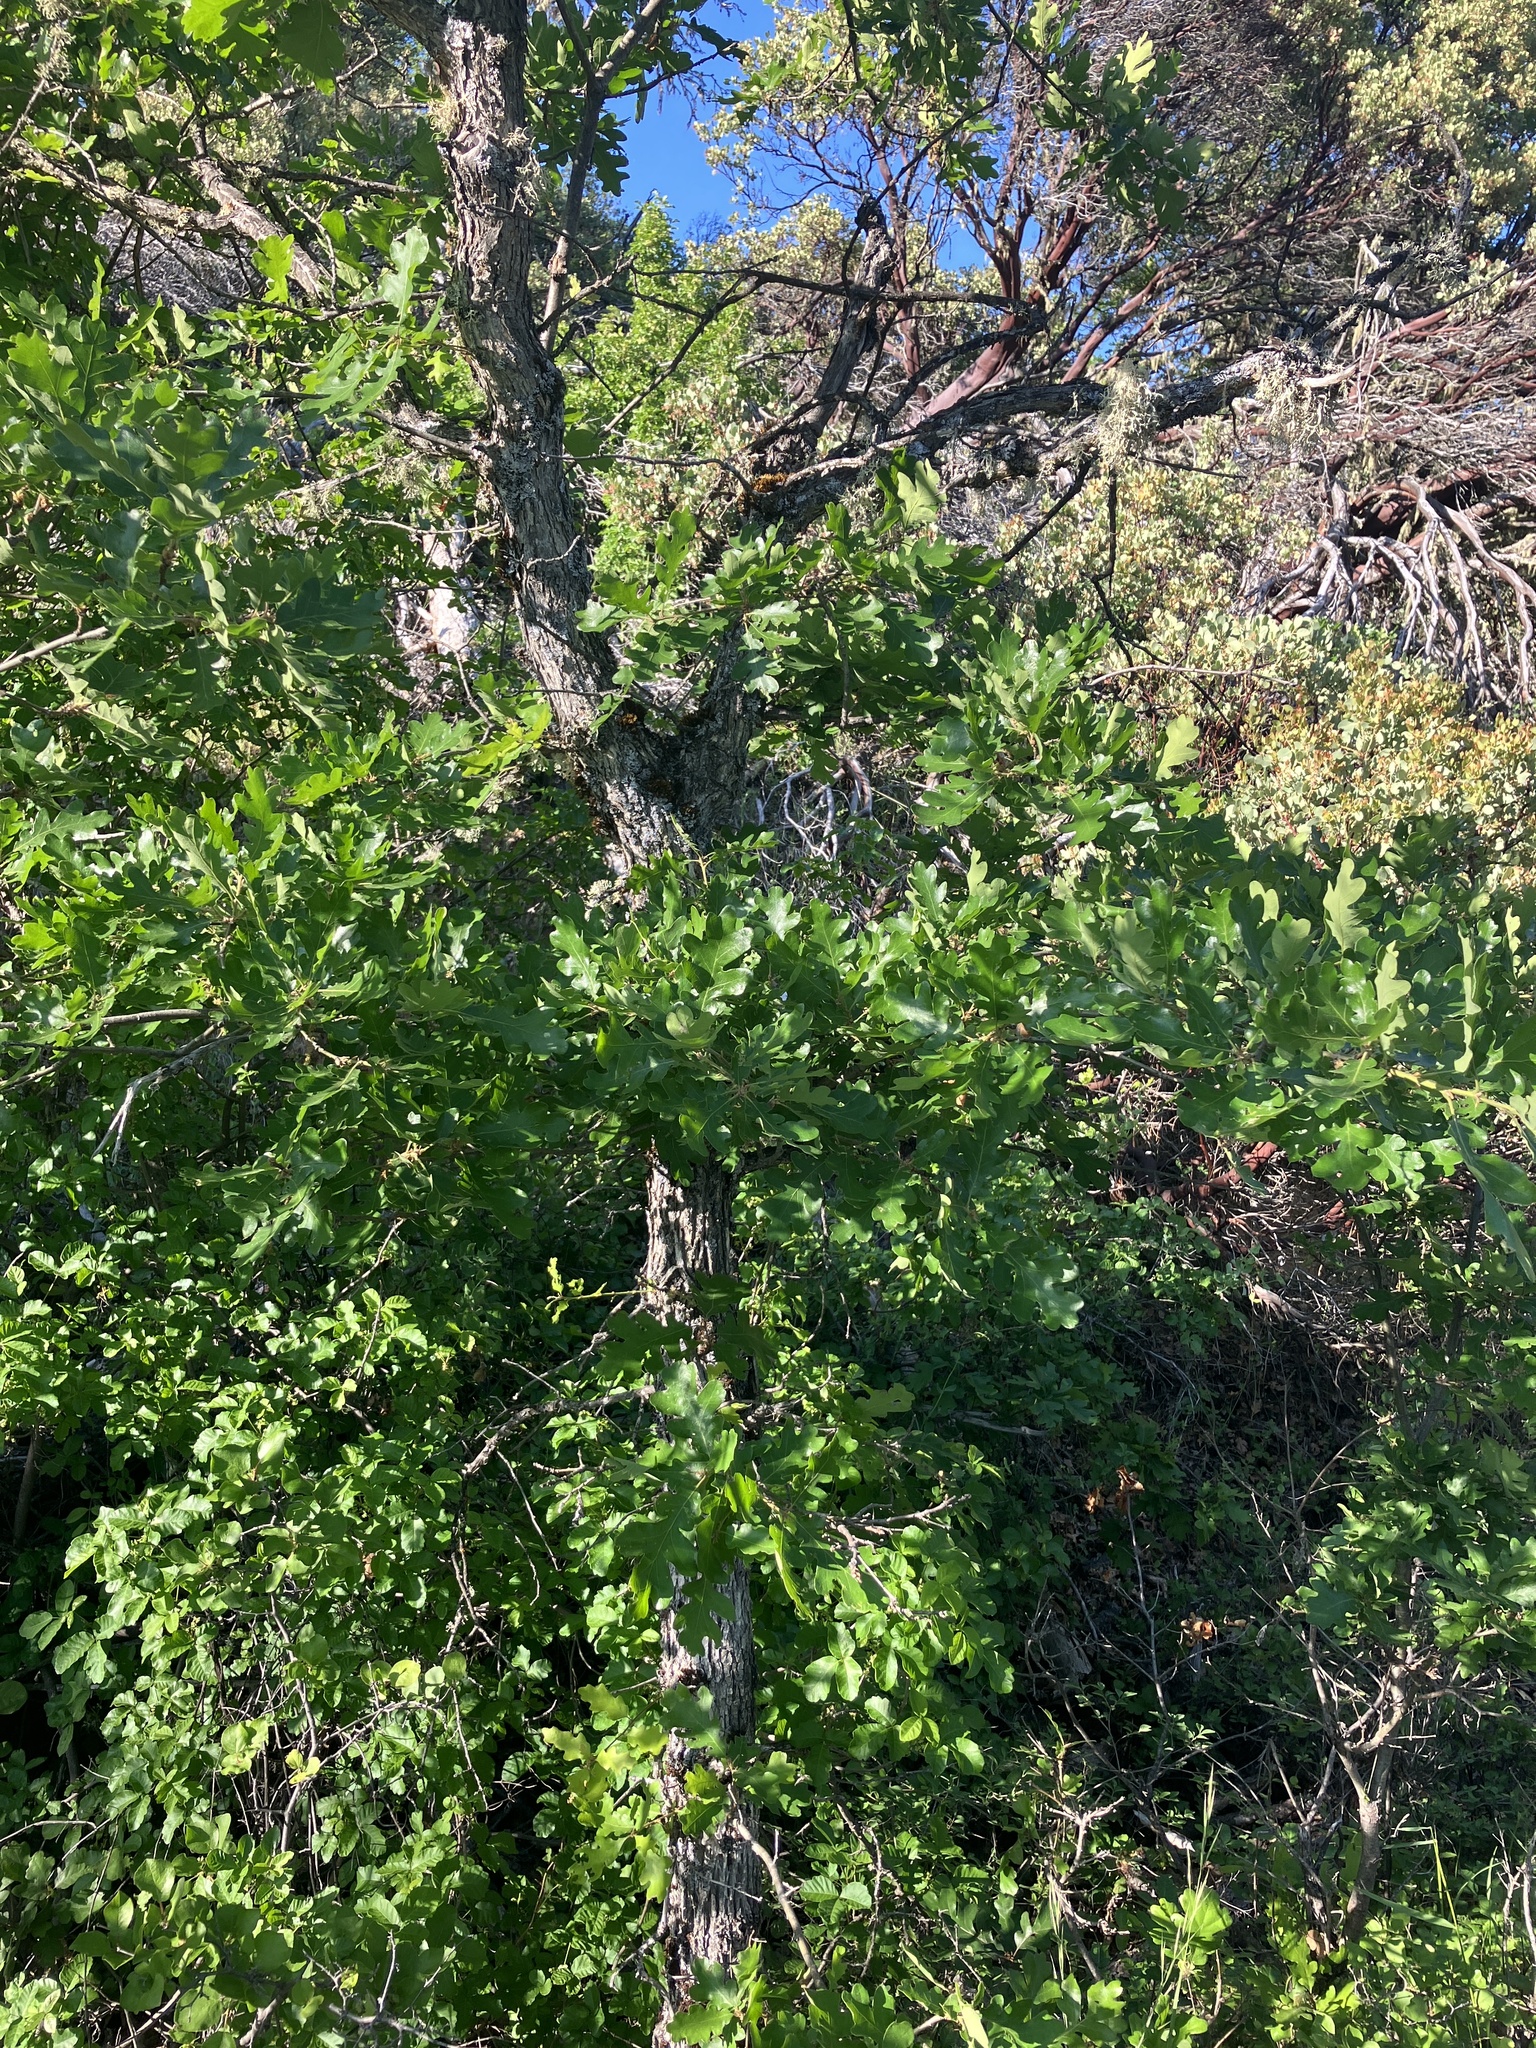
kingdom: Plantae
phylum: Tracheophyta
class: Magnoliopsida
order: Fagales
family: Fagaceae
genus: Quercus
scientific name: Quercus garryana
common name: Garry oak
